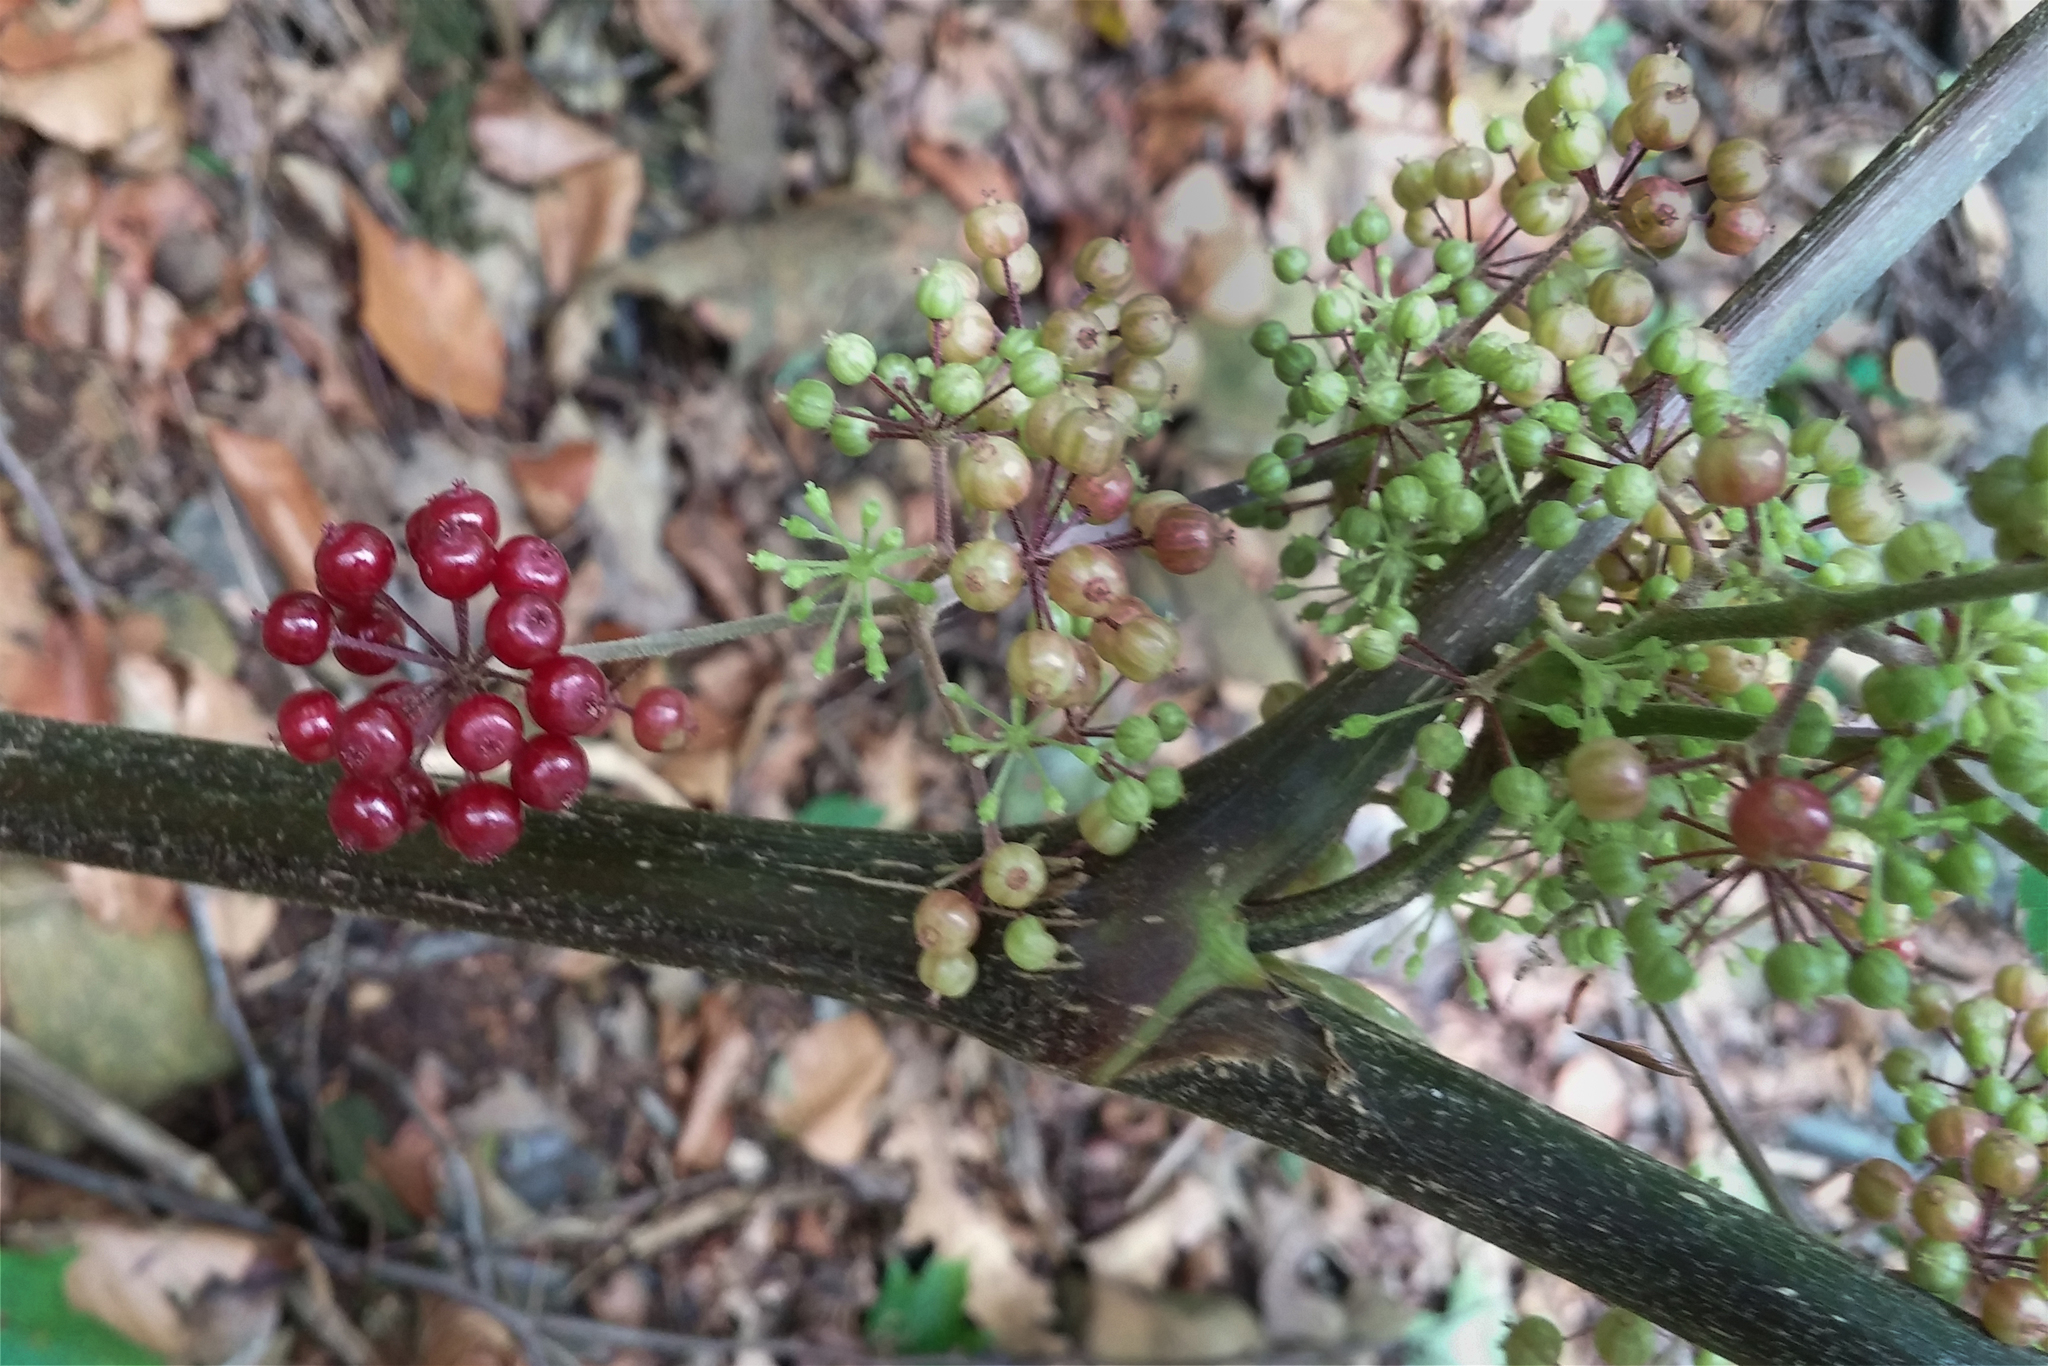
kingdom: Plantae
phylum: Tracheophyta
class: Magnoliopsida
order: Apiales
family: Araliaceae
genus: Aralia
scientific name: Aralia racemosa
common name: American-spikenard
